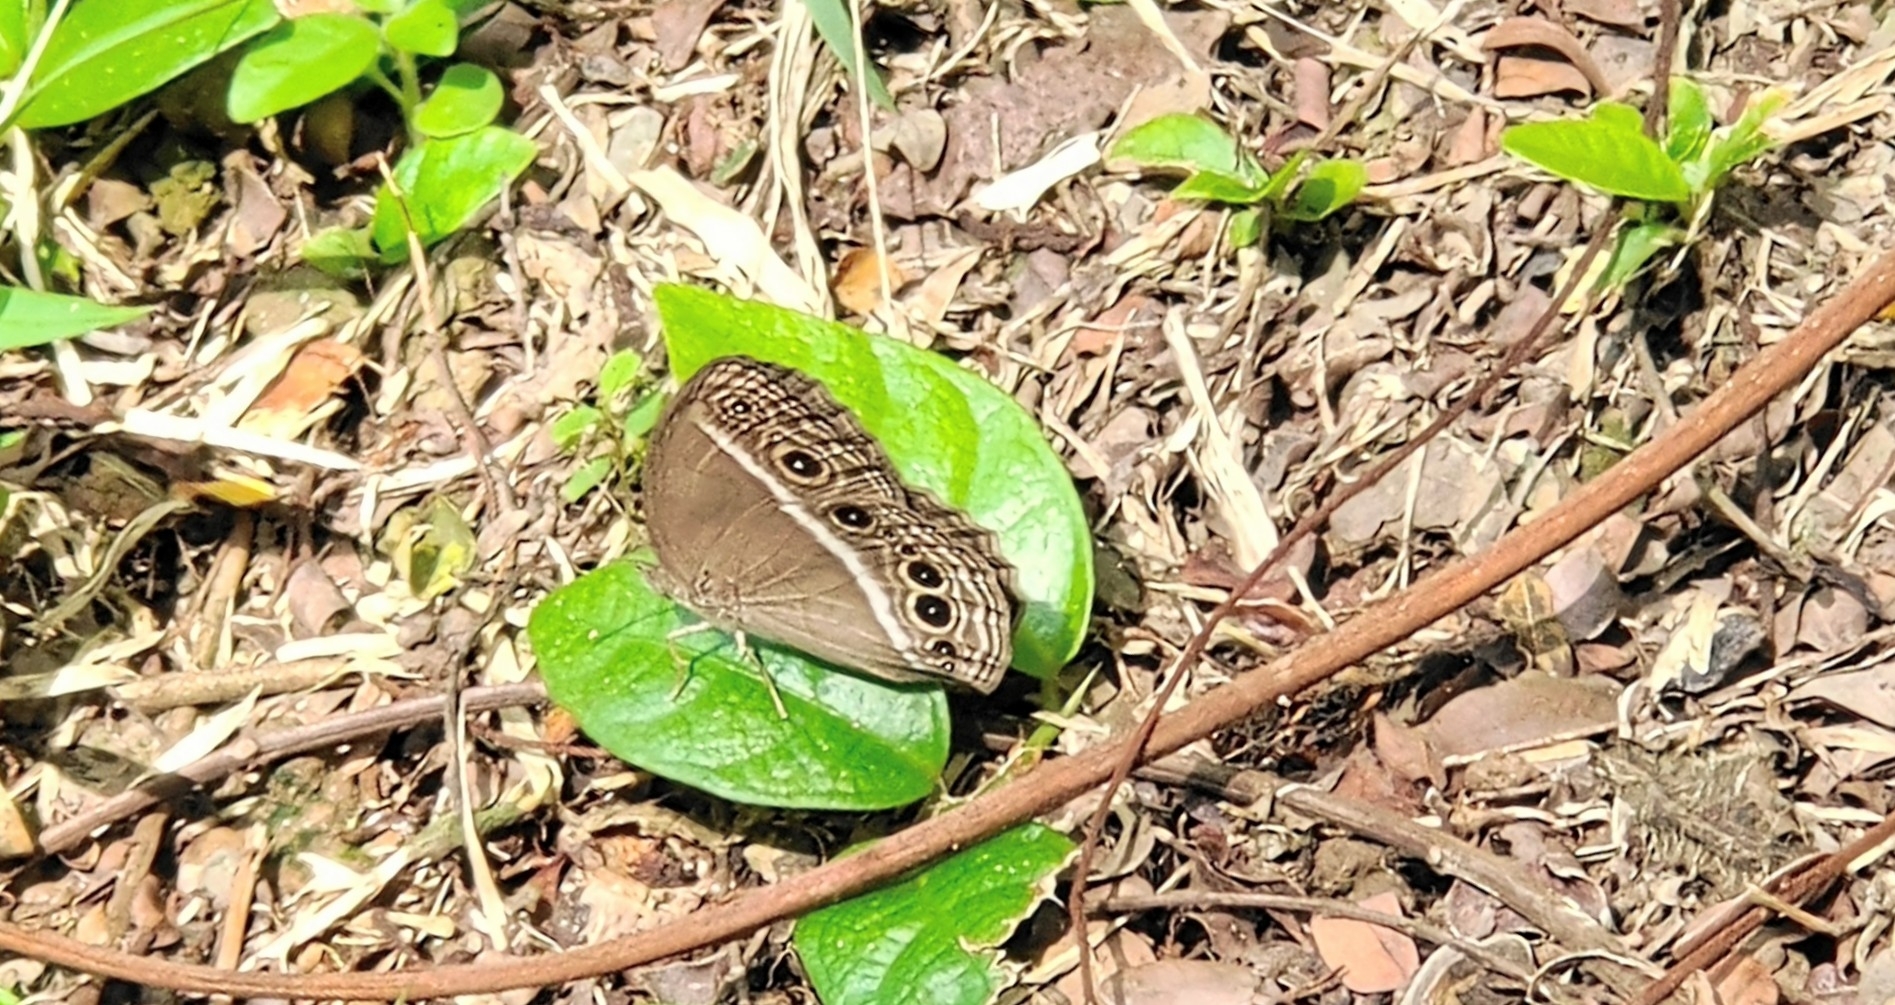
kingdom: Animalia
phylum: Arthropoda
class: Insecta
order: Lepidoptera
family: Nymphalidae
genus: Mycalesis
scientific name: Mycalesis mineus
